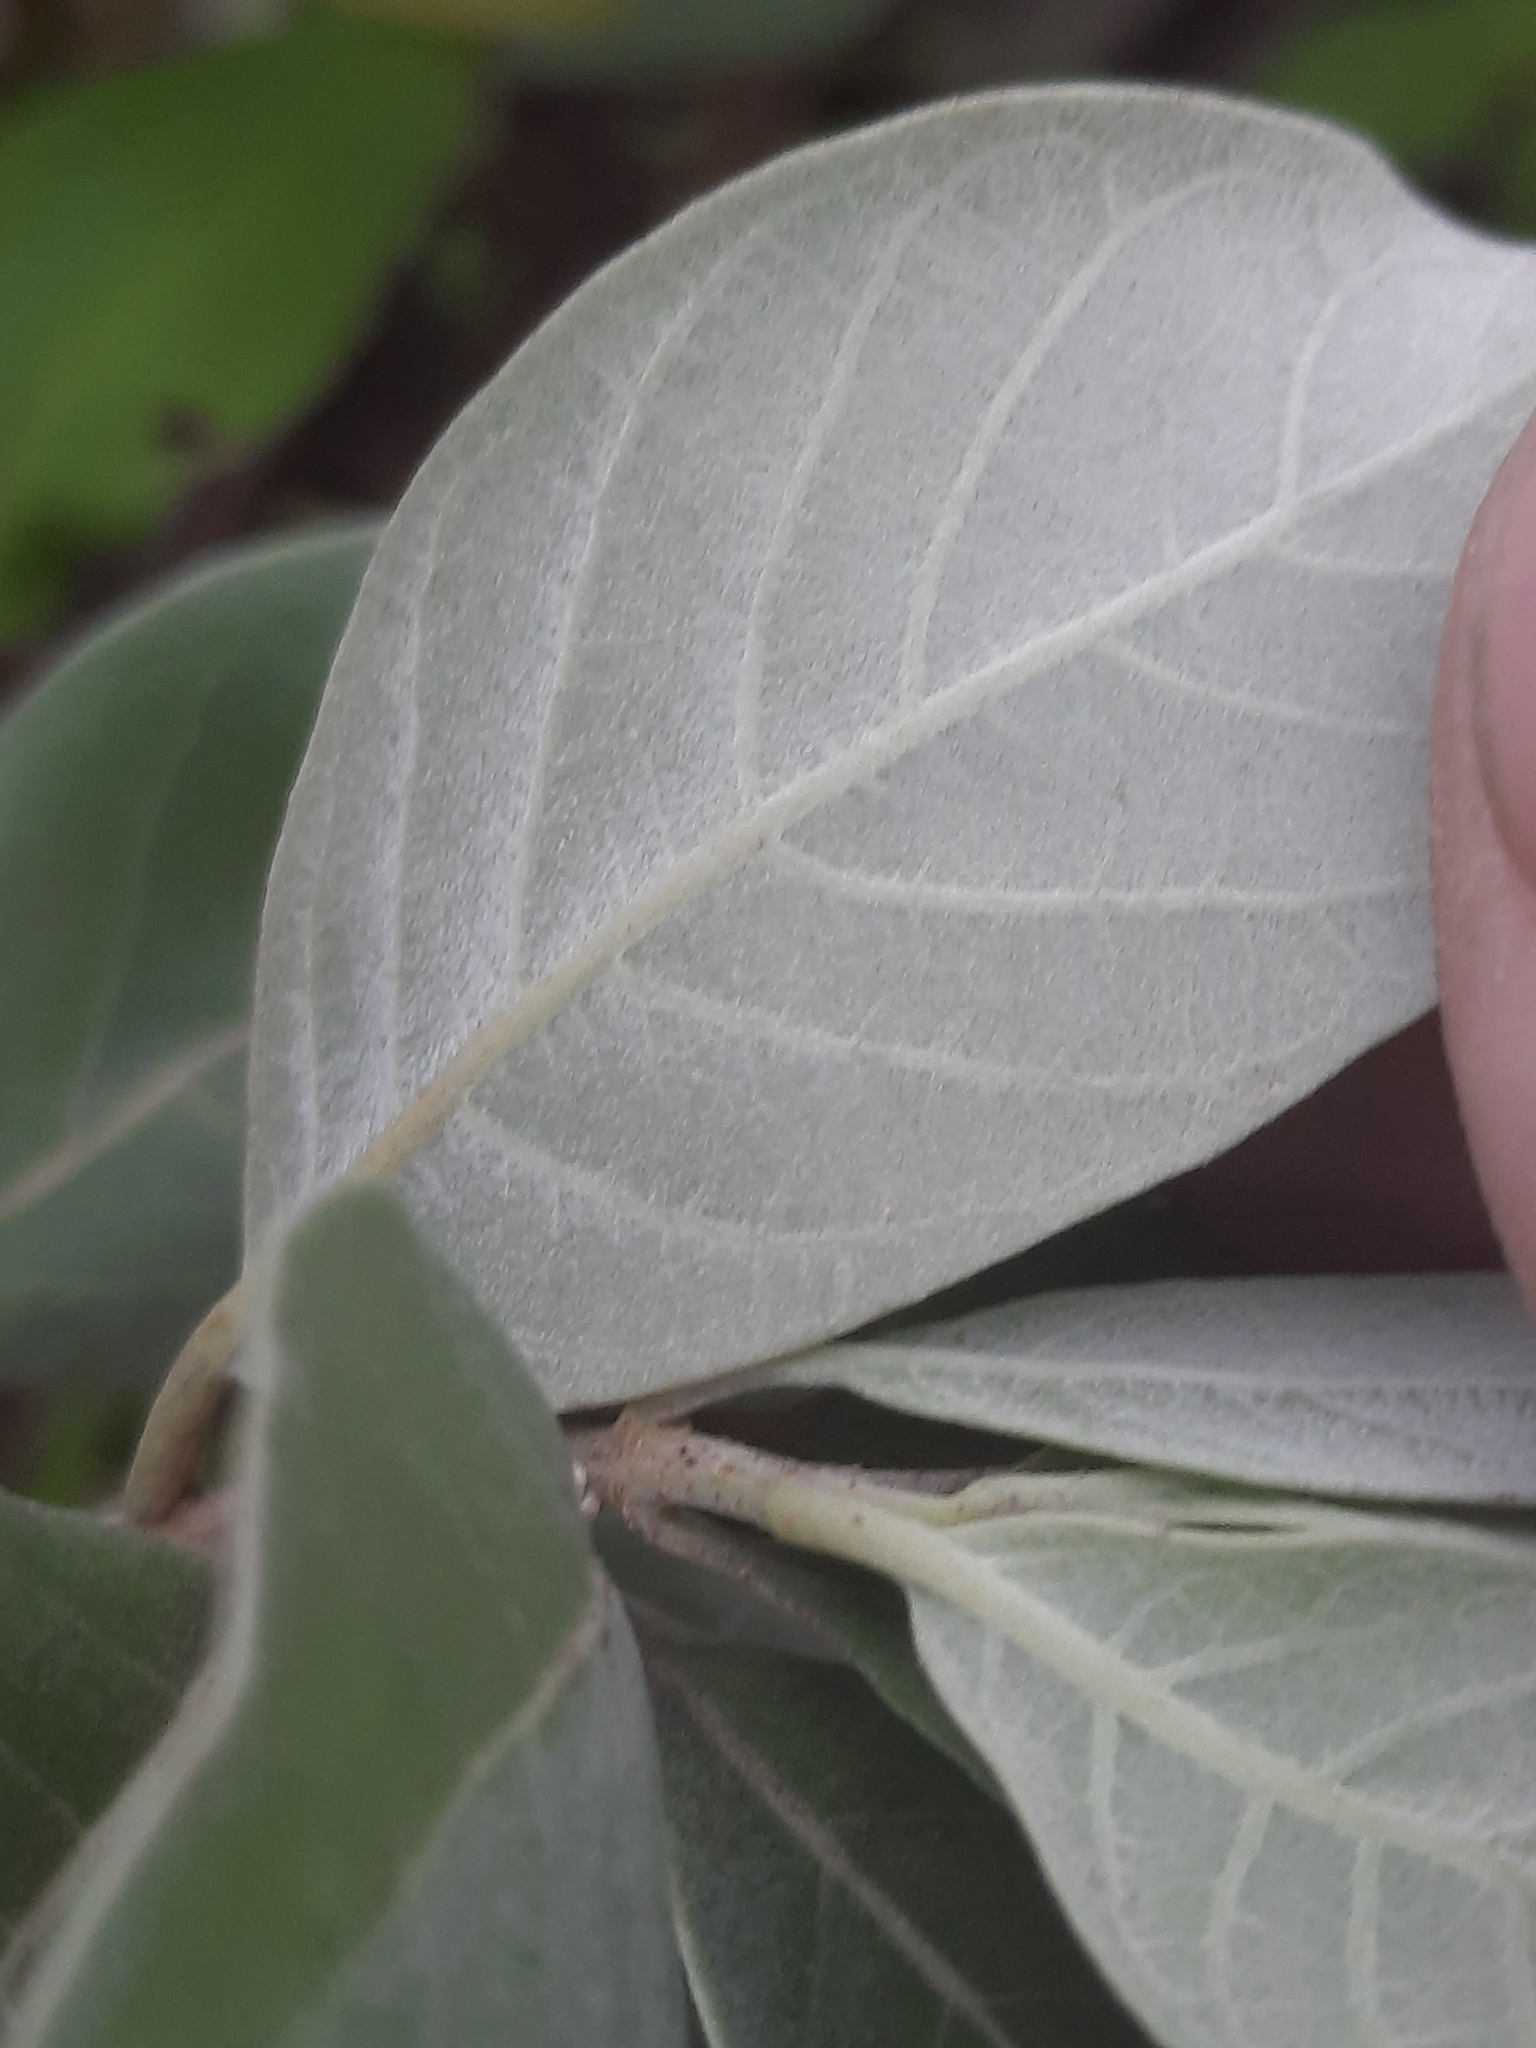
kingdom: Plantae
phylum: Tracheophyta
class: Magnoliopsida
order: Lamiales
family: Lamiaceae
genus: Vitex
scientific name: Vitex rotundifolia
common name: Beach vitex
